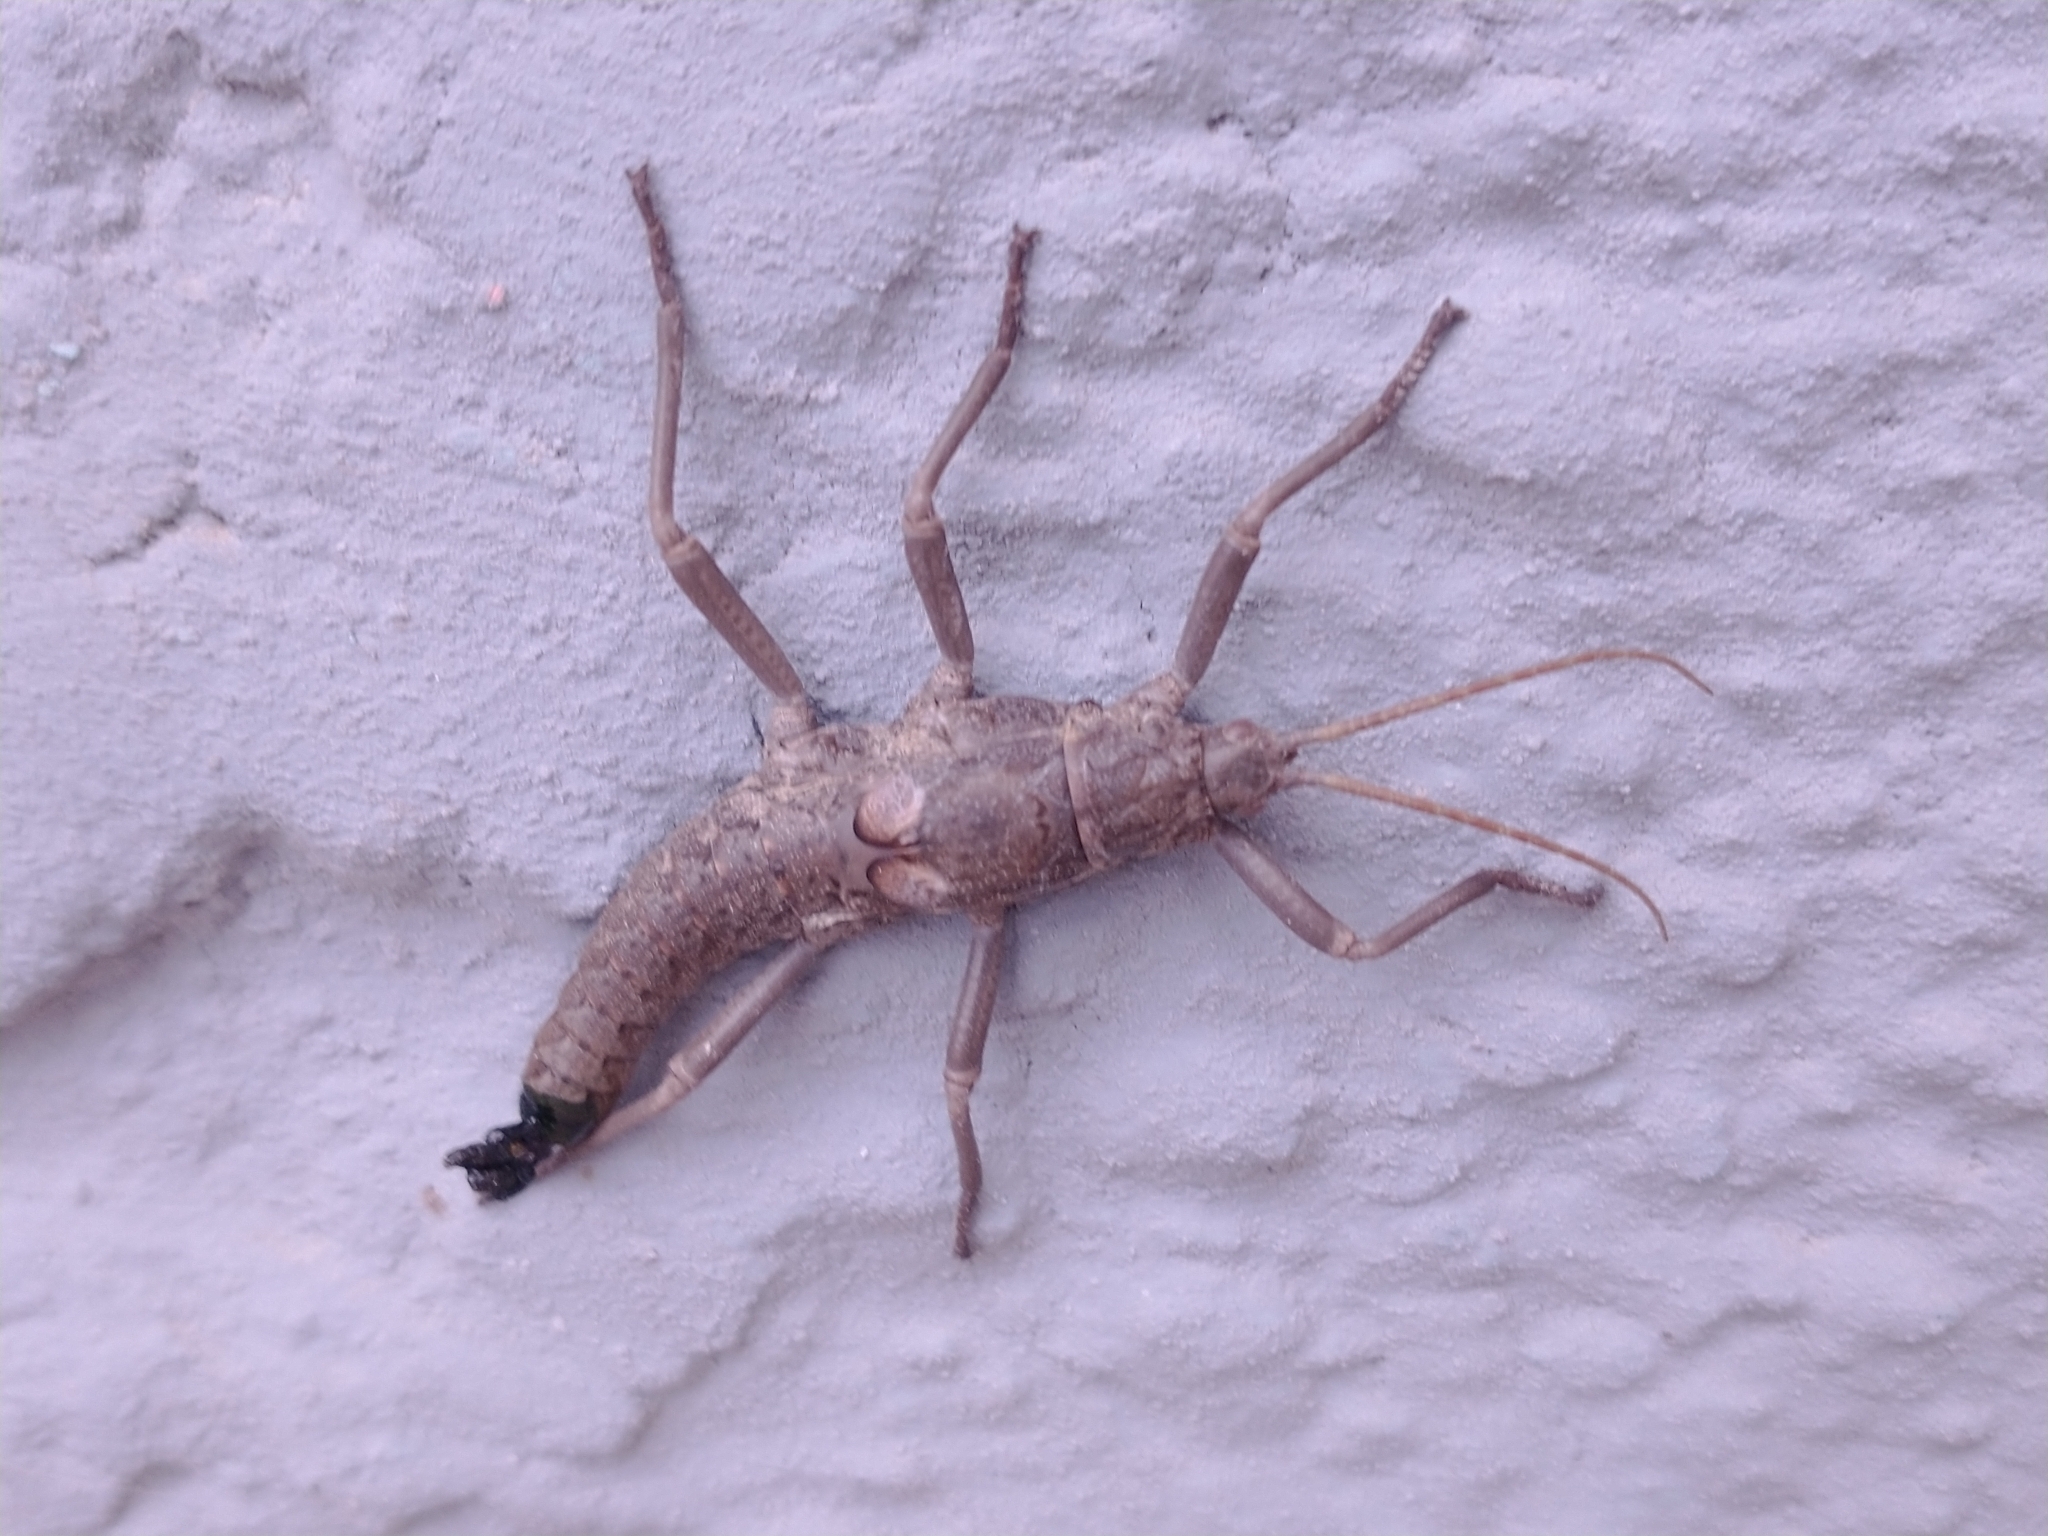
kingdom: Animalia
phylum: Arthropoda
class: Insecta
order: Phasmida
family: Agathemeridae
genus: Agathemera
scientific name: Agathemera luteola
